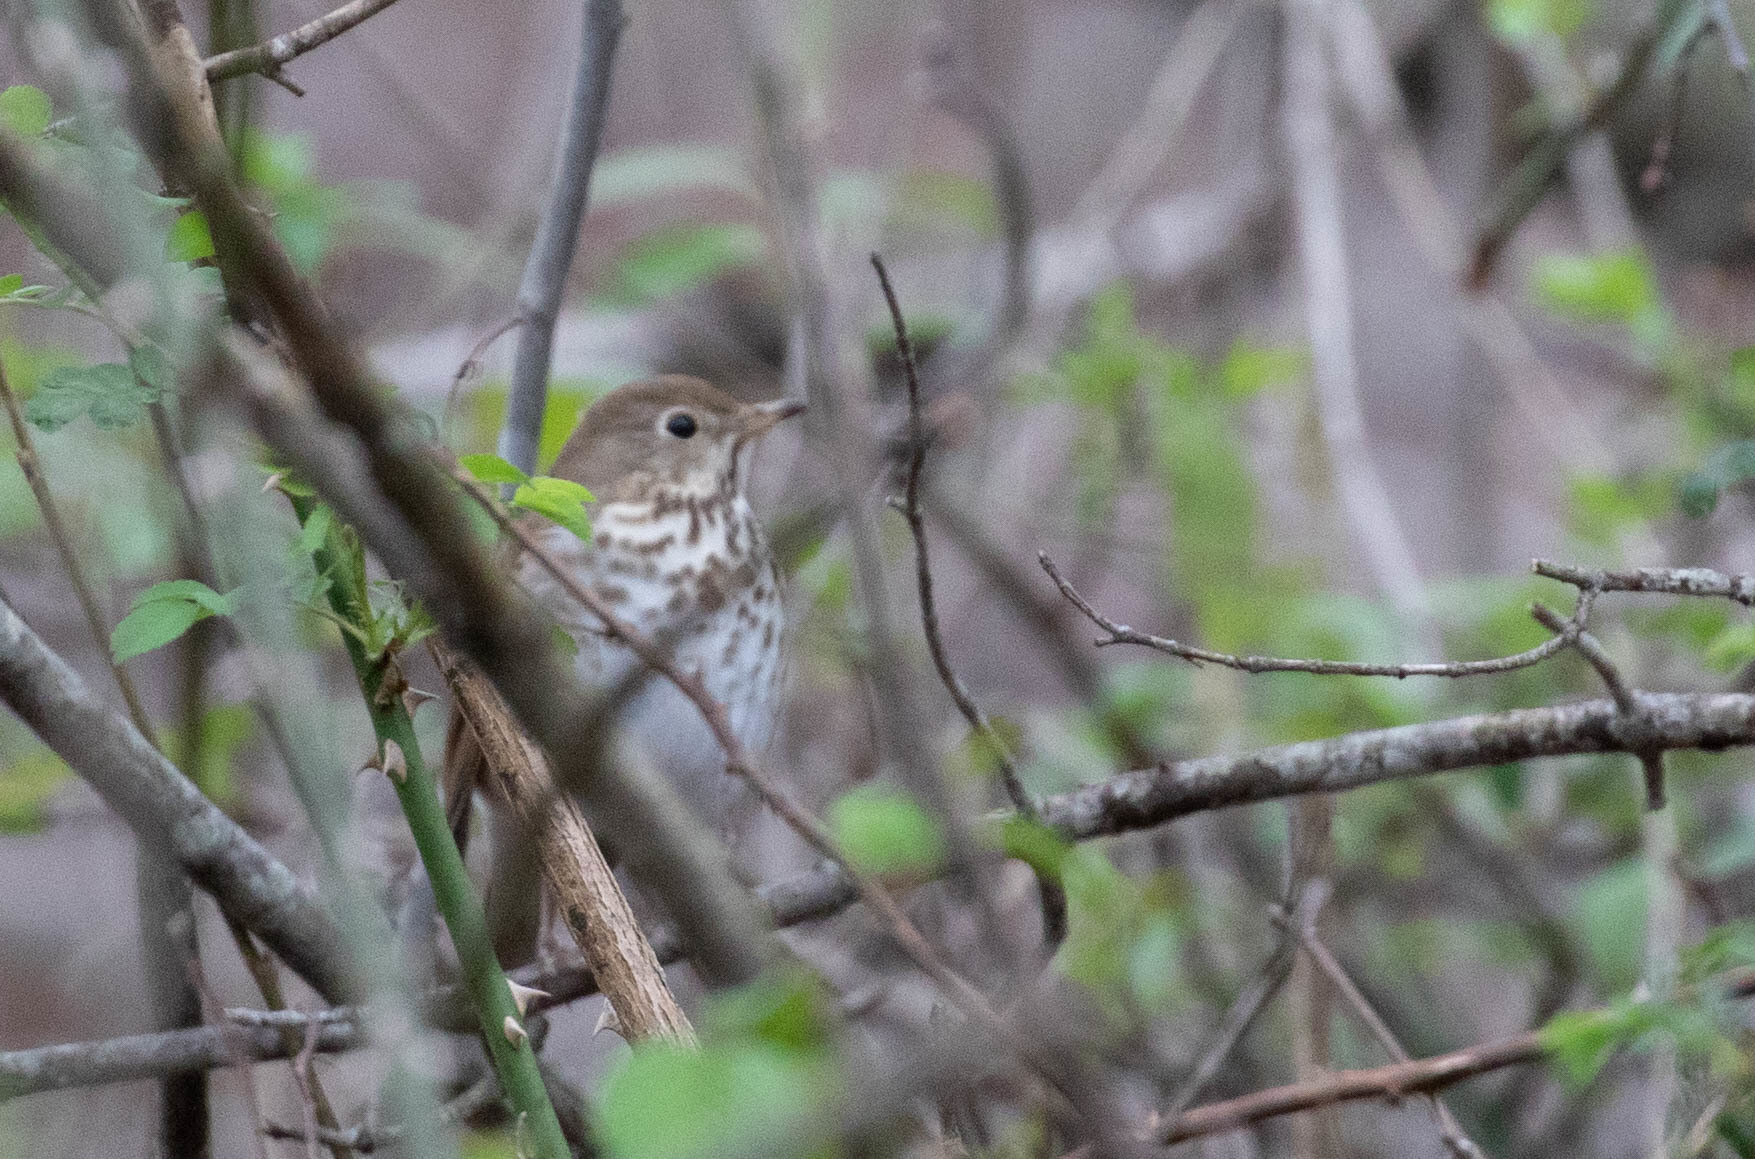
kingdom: Animalia
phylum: Chordata
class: Aves
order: Passeriformes
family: Turdidae
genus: Catharus
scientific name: Catharus guttatus
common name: Hermit thrush
